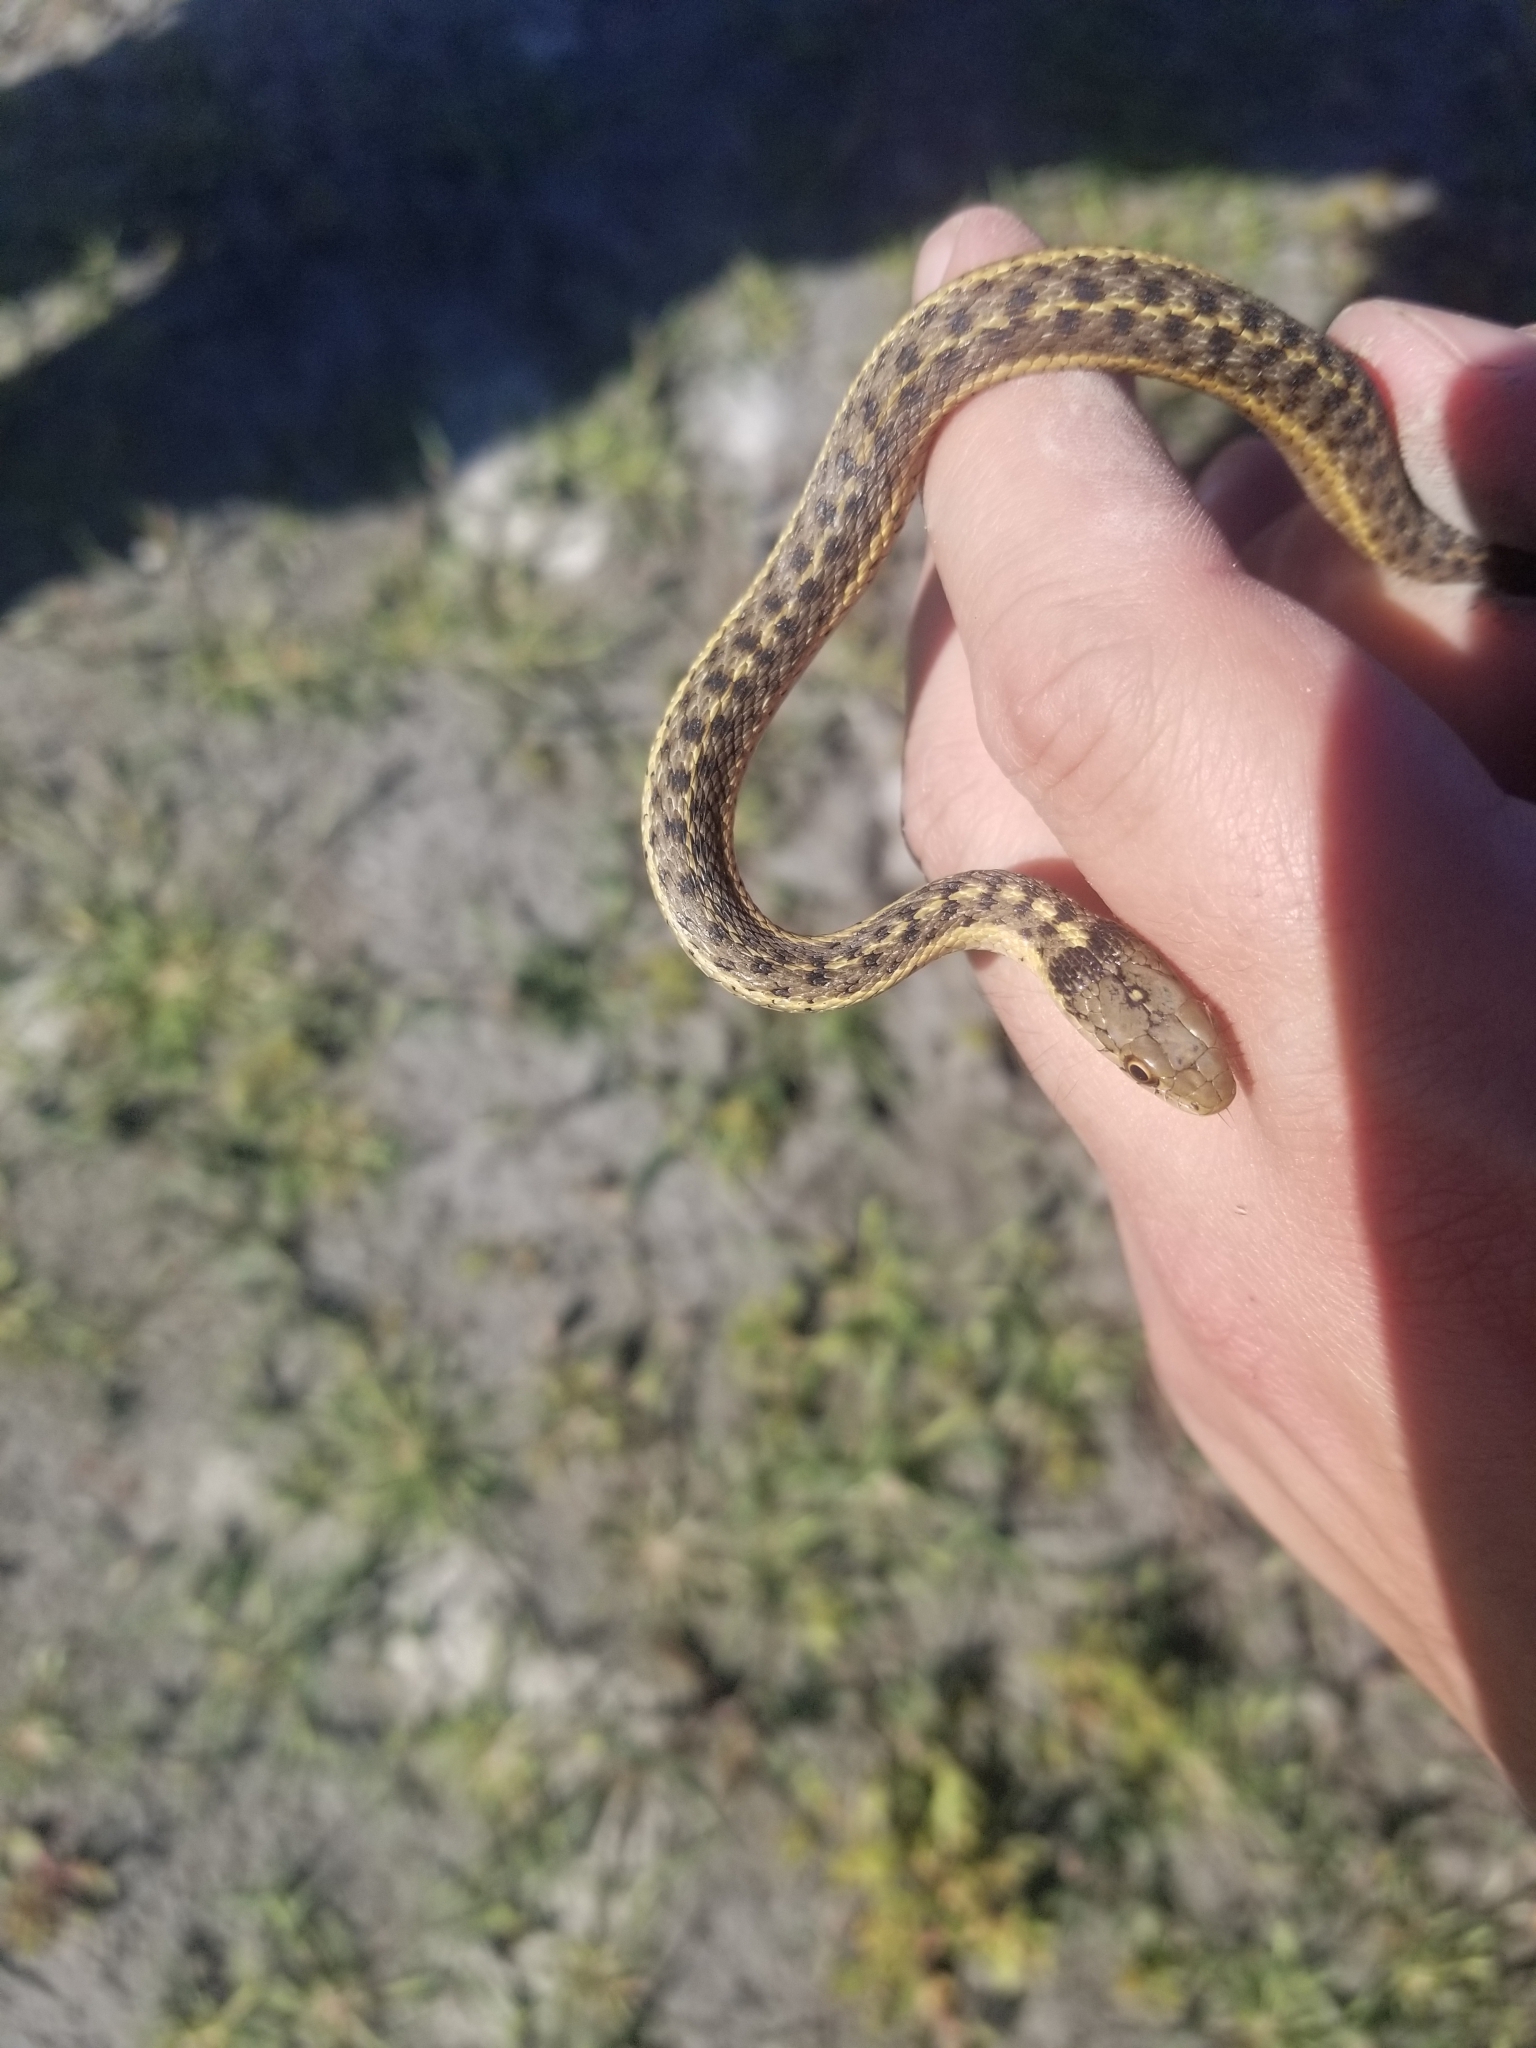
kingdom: Animalia
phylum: Chordata
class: Squamata
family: Colubridae
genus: Thamnophis
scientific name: Thamnophis elegans
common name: Western terrestrial garter snake
